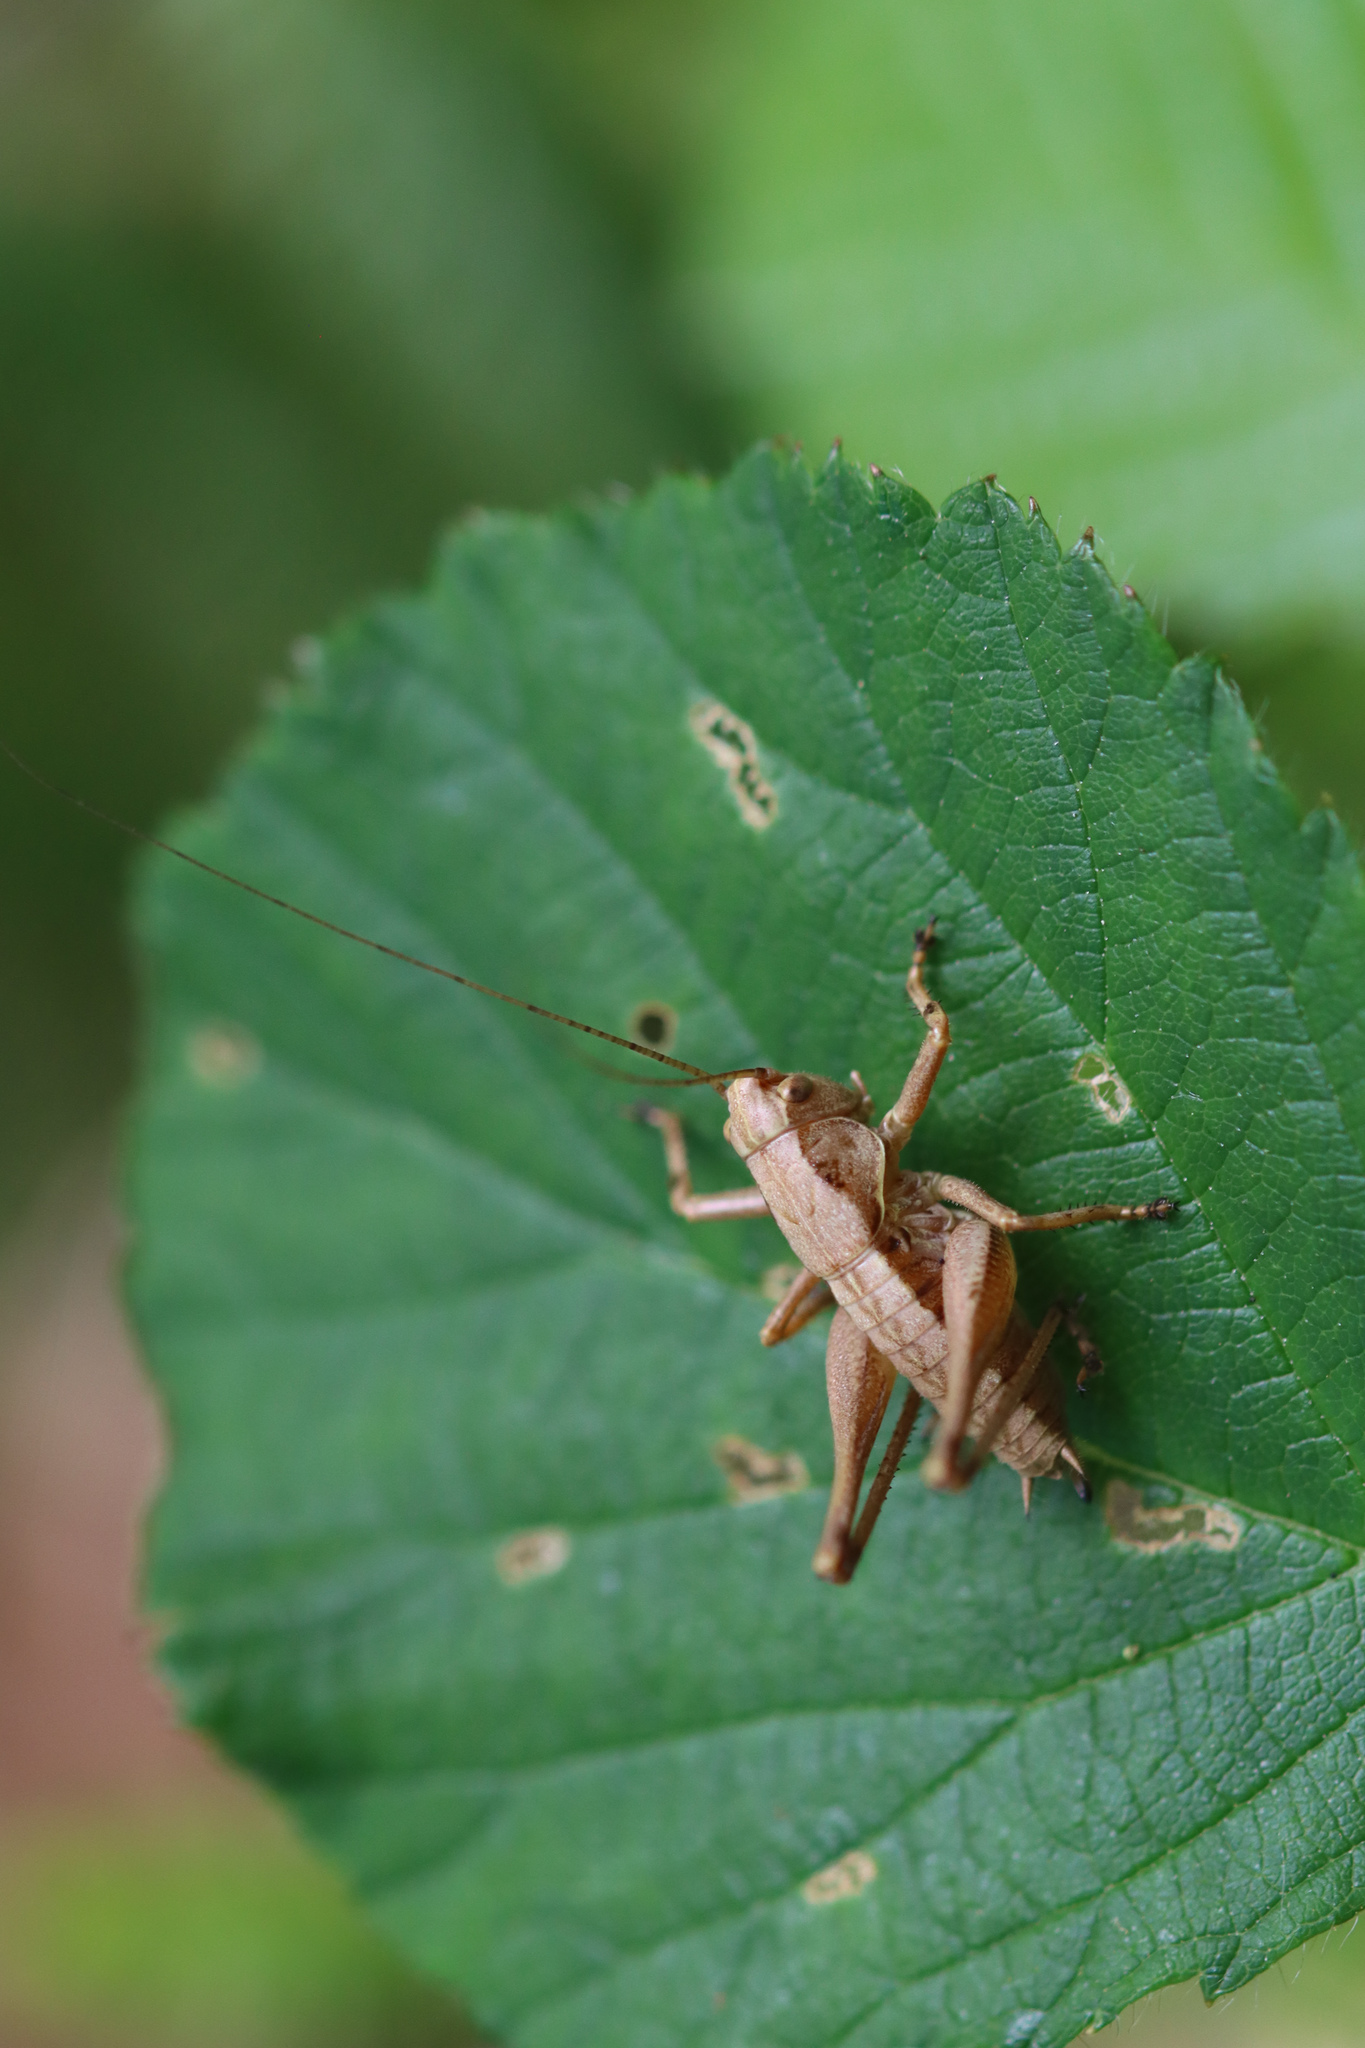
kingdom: Animalia
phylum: Arthropoda
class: Insecta
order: Orthoptera
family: Tettigoniidae
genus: Pholidoptera
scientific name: Pholidoptera griseoaptera
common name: Dark bush-cricket
